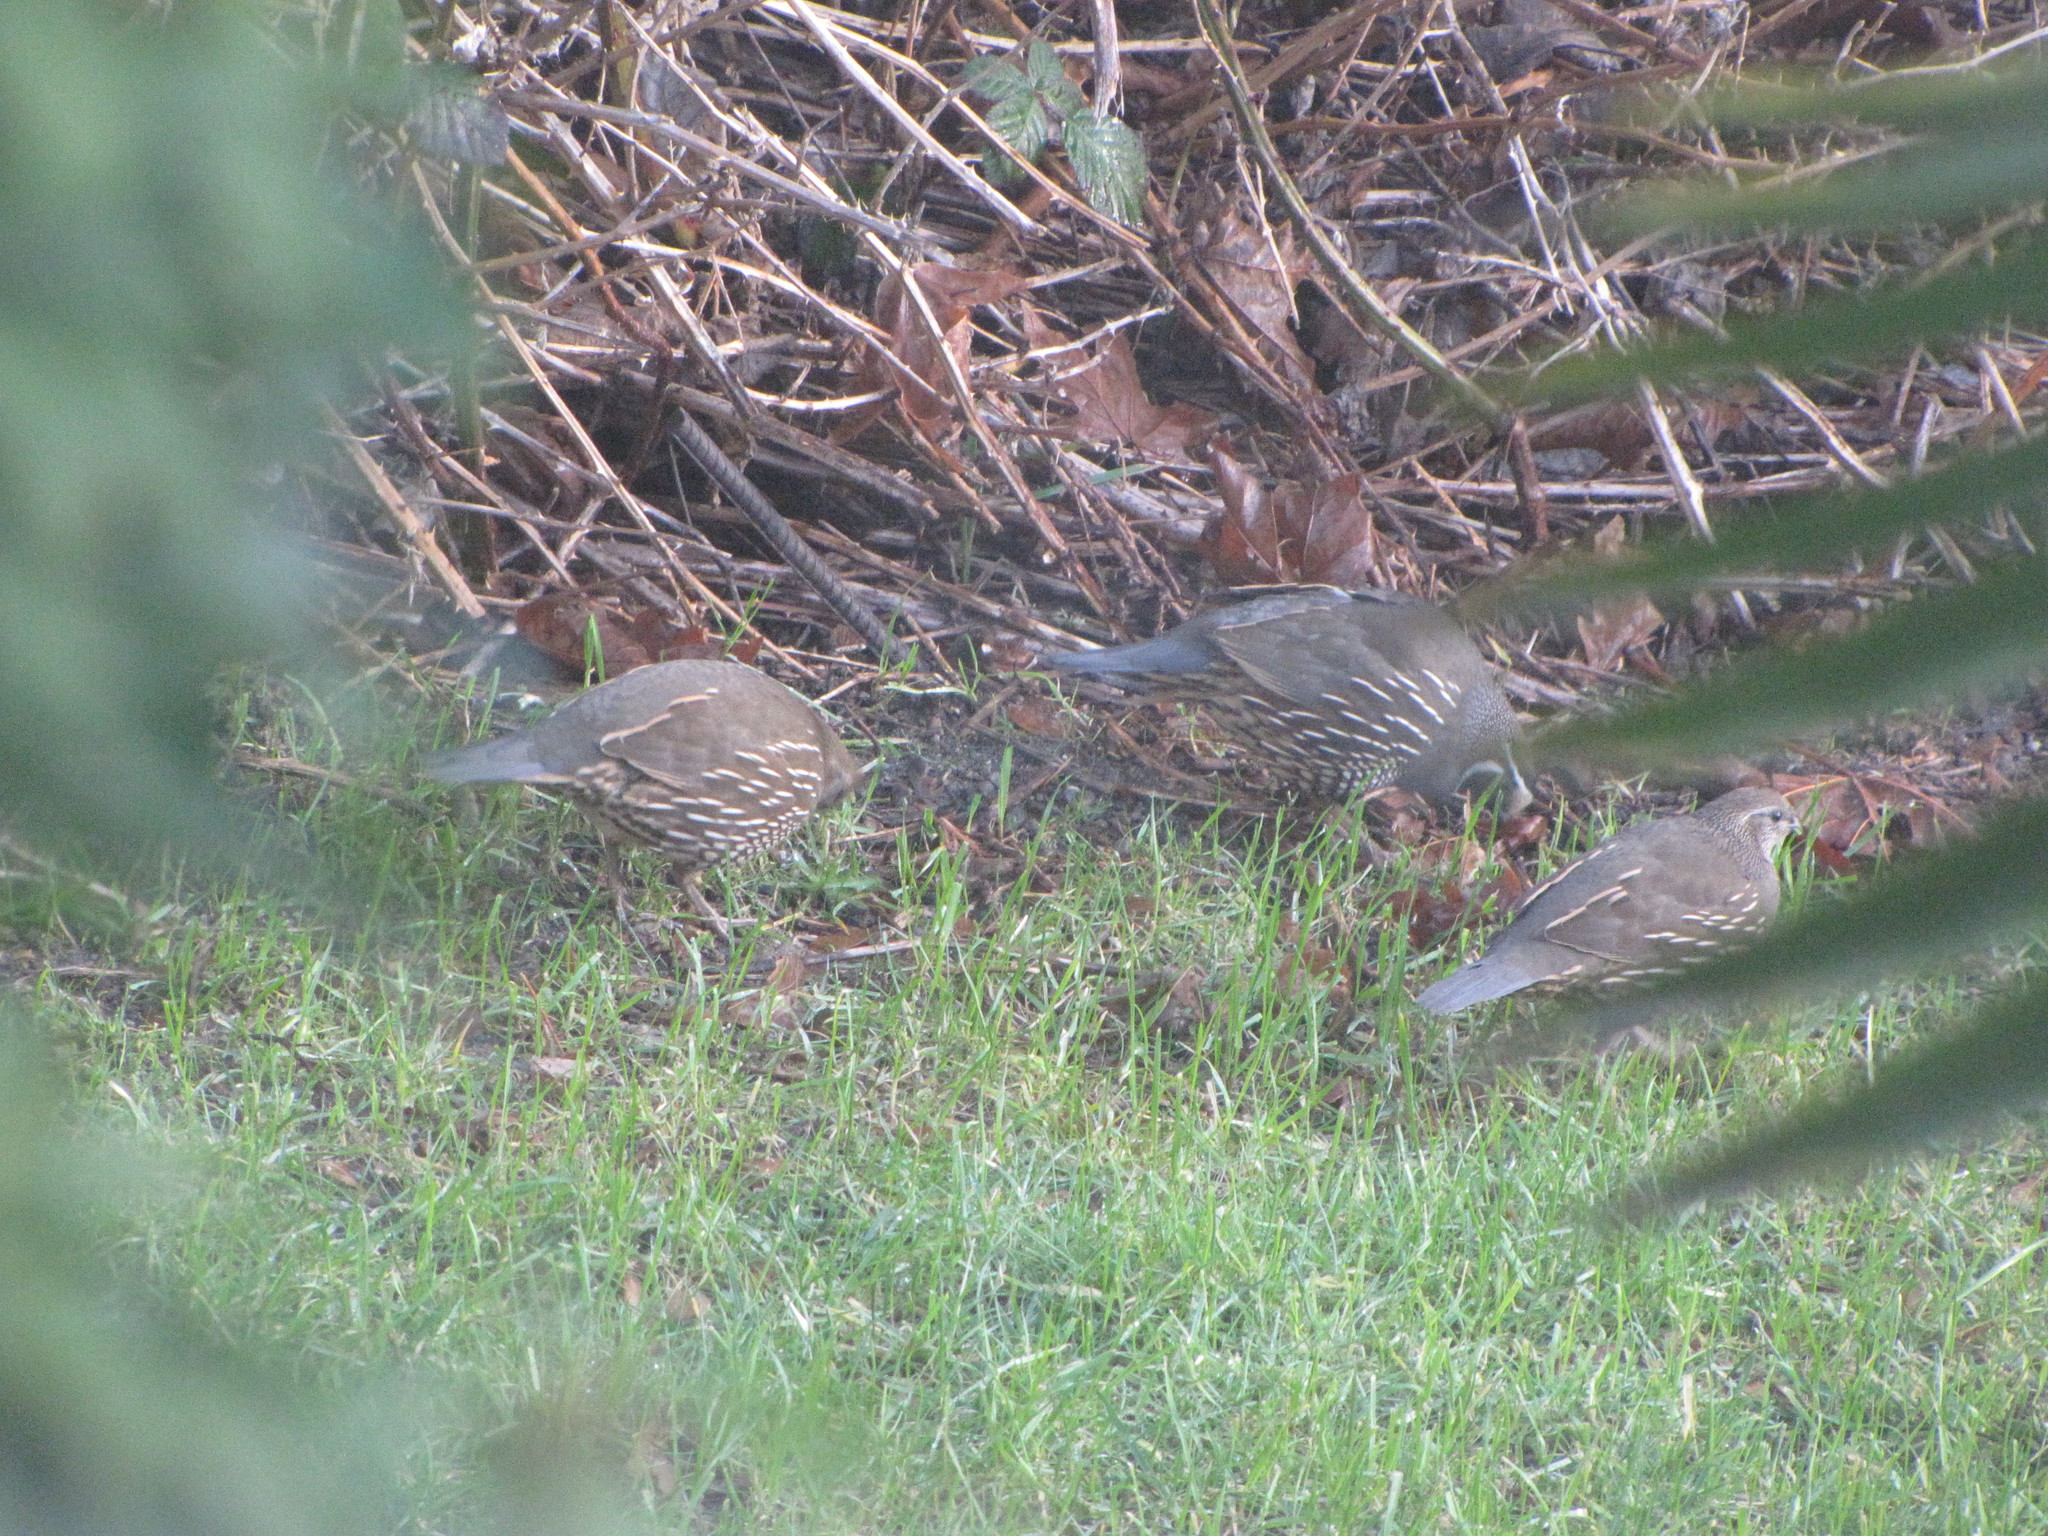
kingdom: Animalia
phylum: Chordata
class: Aves
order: Galliformes
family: Odontophoridae
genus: Callipepla
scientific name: Callipepla californica
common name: California quail
